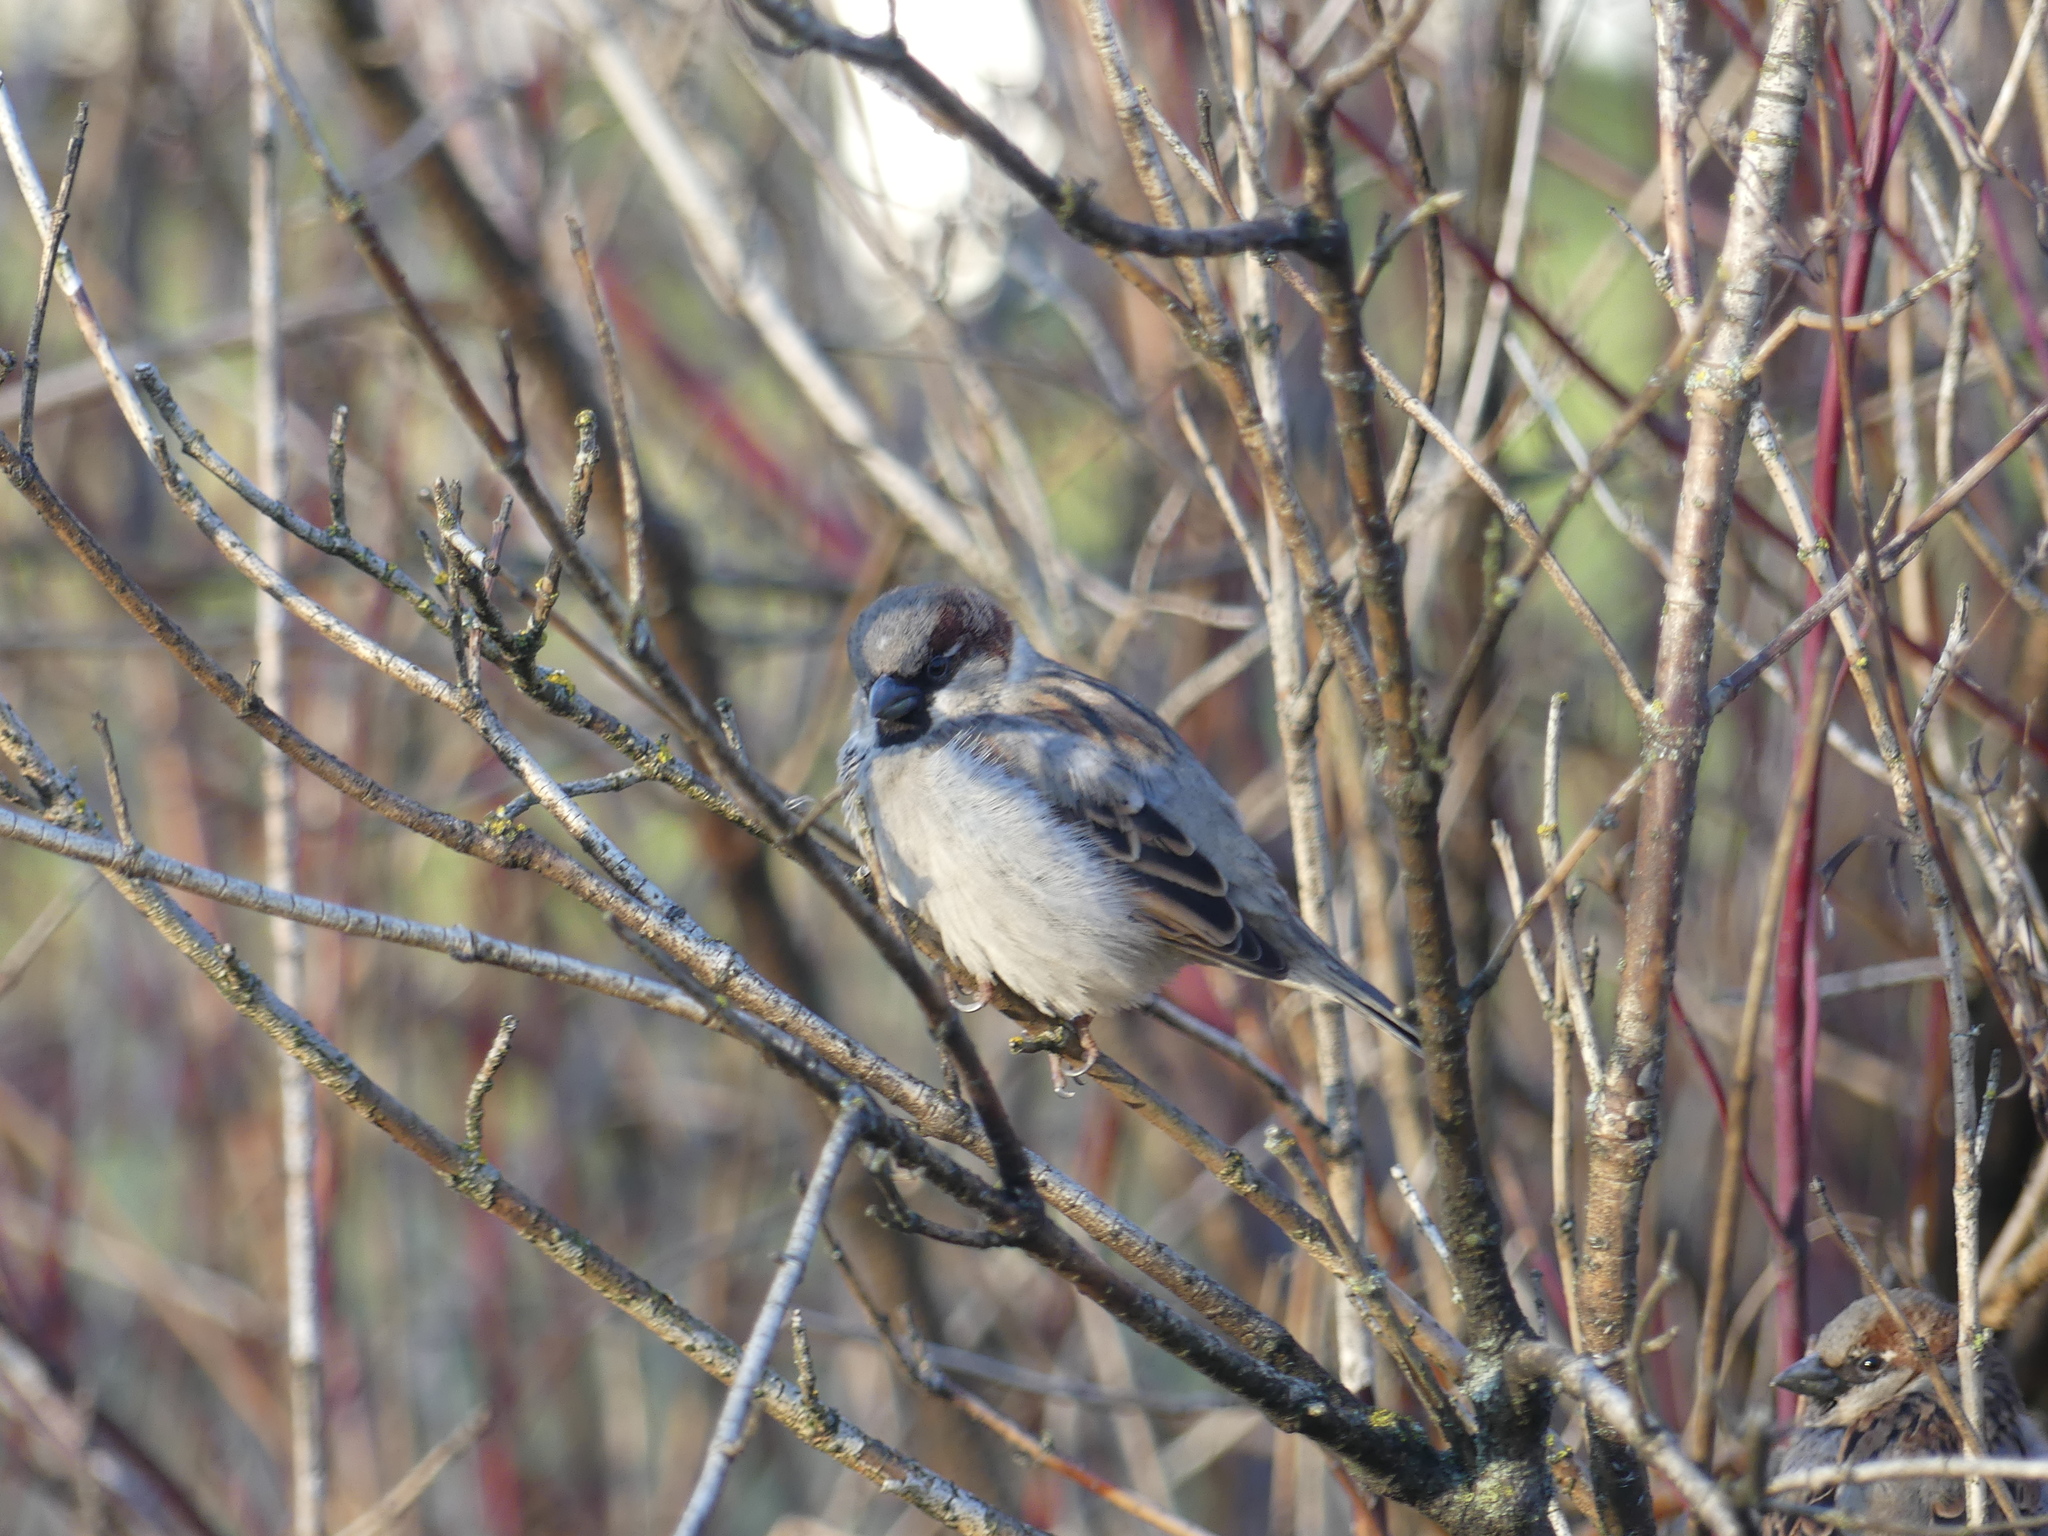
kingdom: Animalia
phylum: Chordata
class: Aves
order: Passeriformes
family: Passeridae
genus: Passer
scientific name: Passer domesticus
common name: House sparrow
